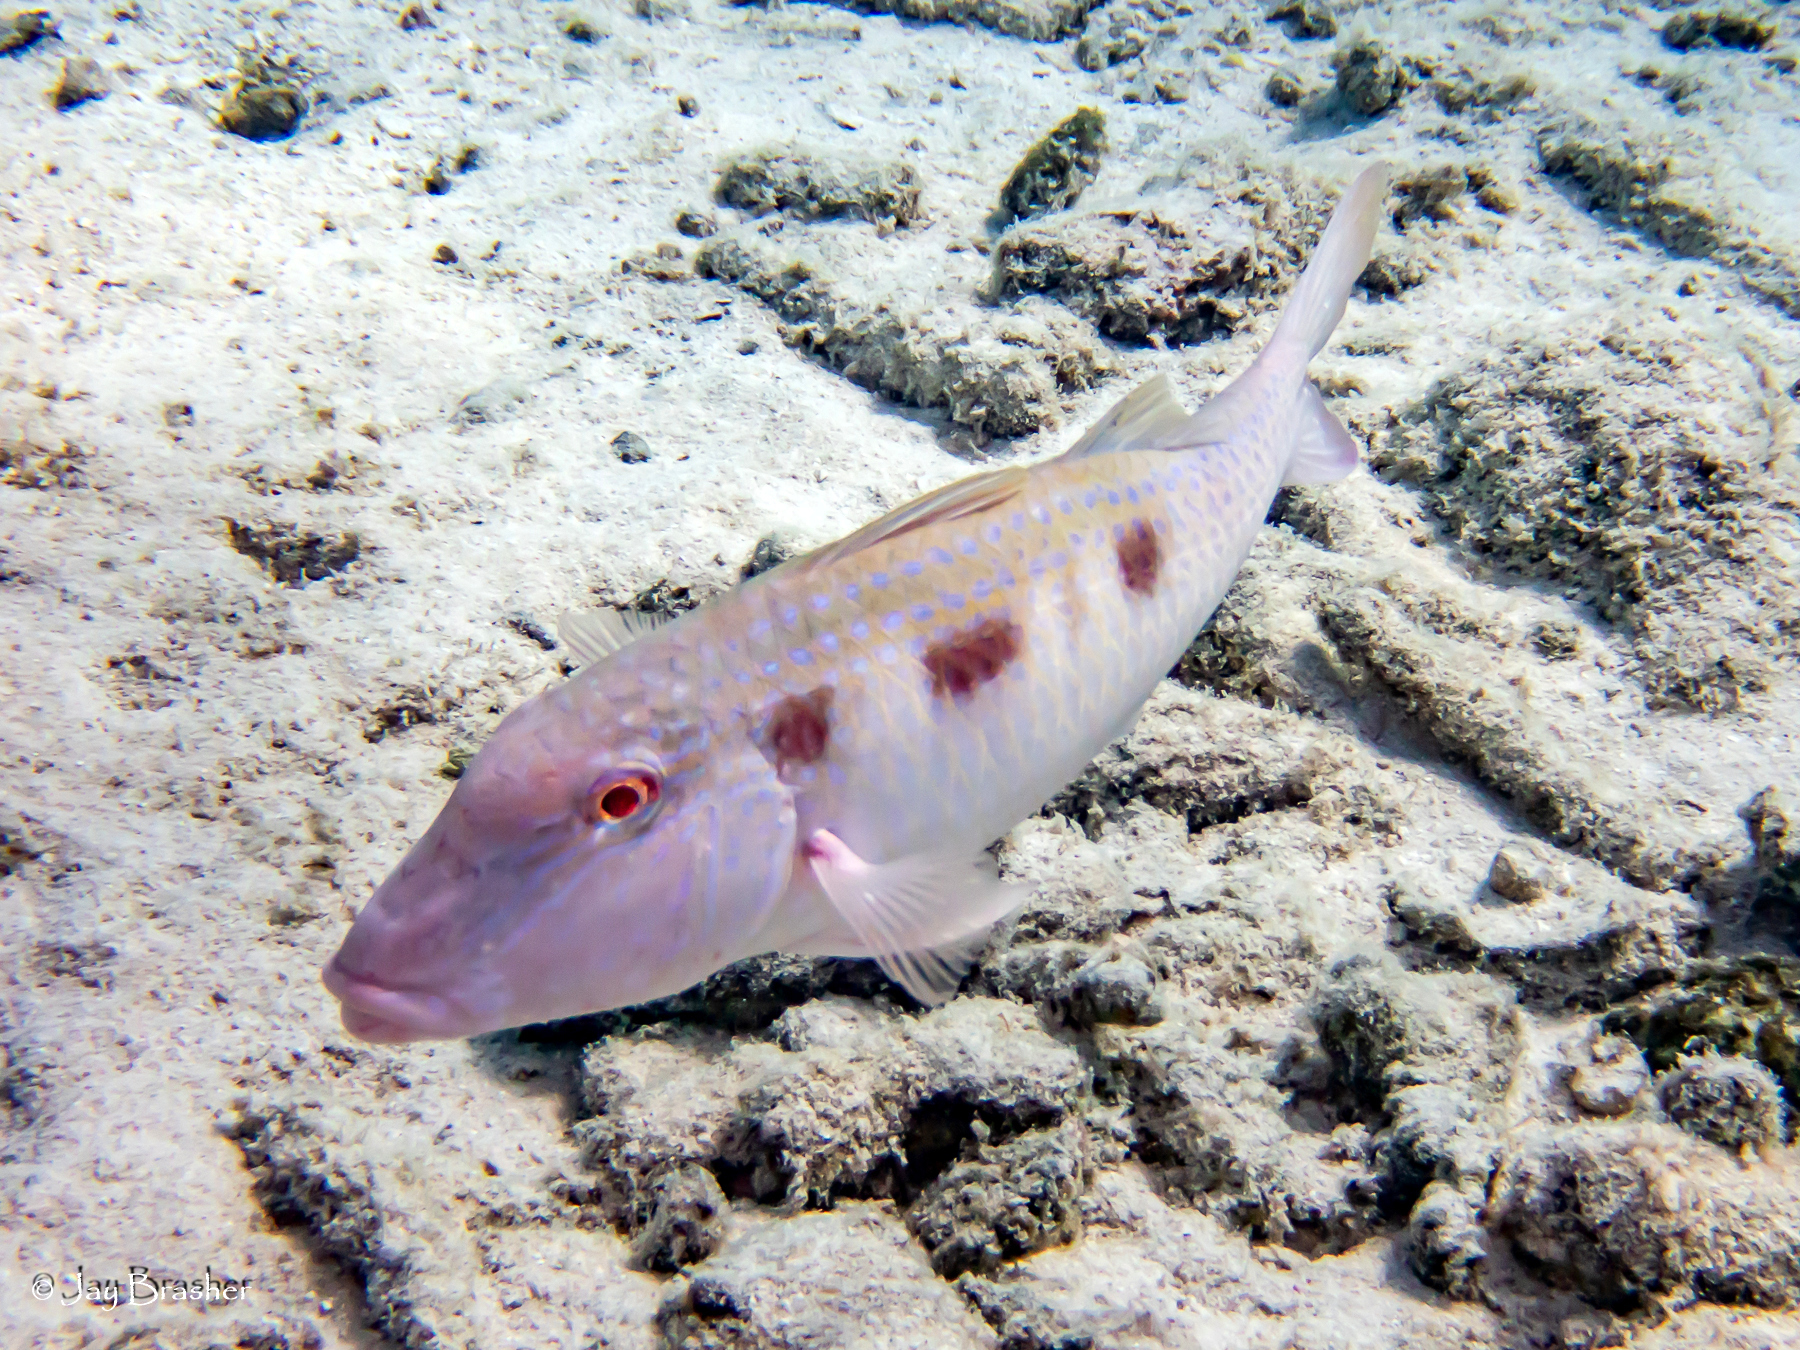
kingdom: Animalia
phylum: Chordata
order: Perciformes
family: Mullidae
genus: Pseudupeneus
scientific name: Pseudupeneus maculatus
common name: Spotted goatfish
